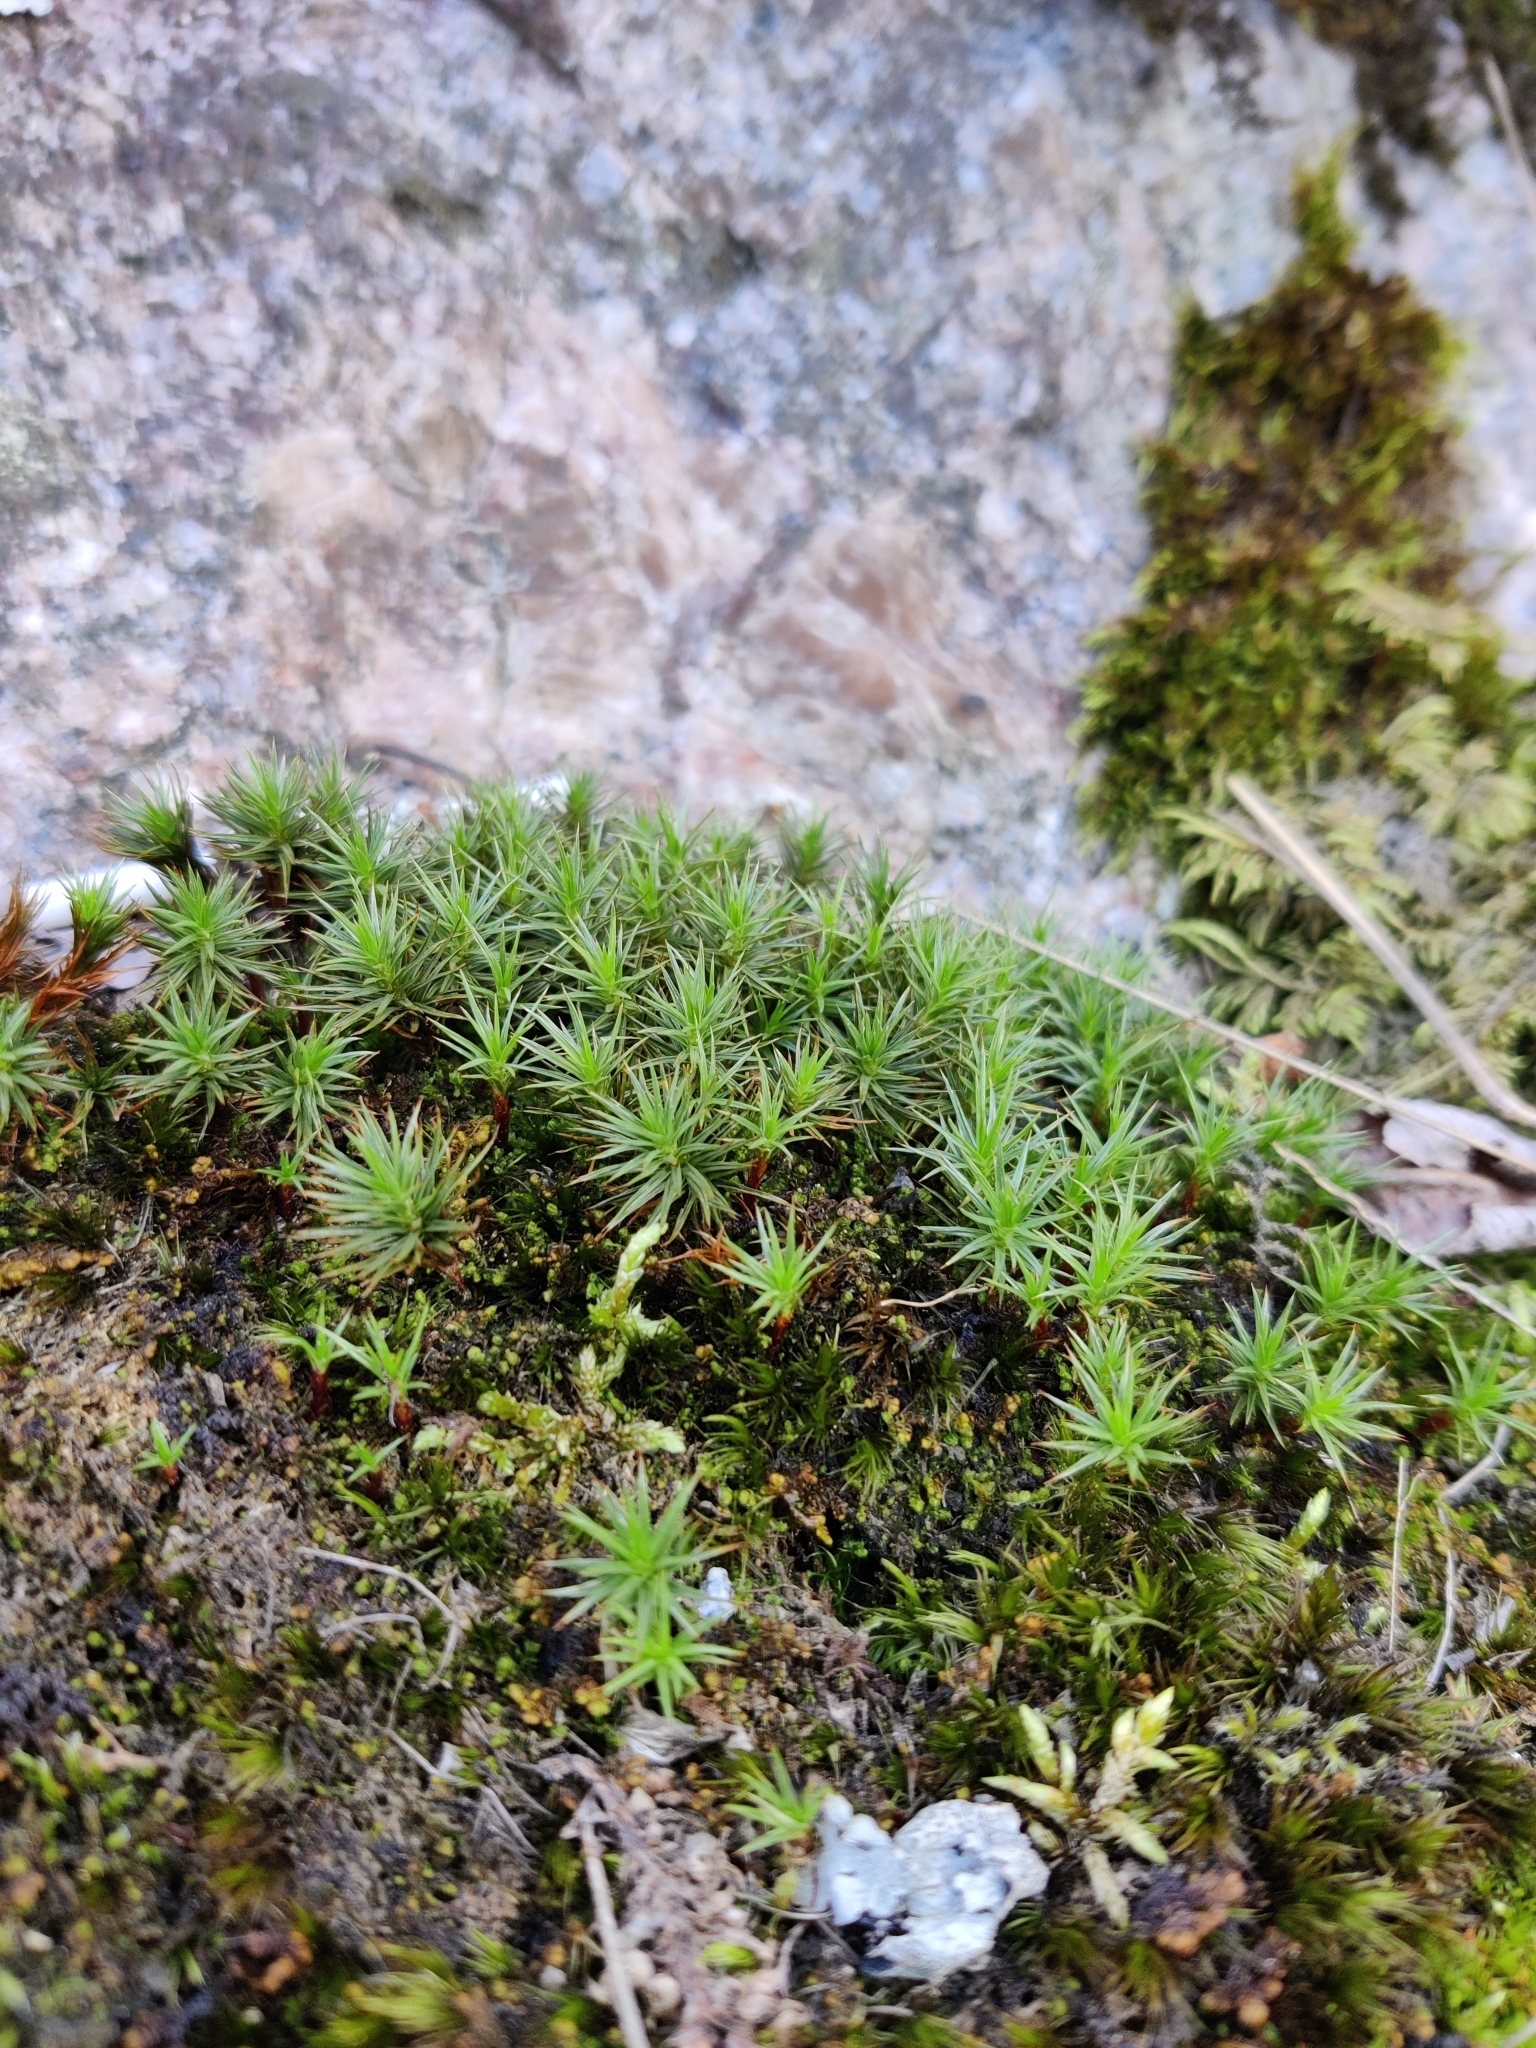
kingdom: Plantae
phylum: Bryophyta
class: Polytrichopsida
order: Polytrichales
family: Polytrichaceae
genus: Polytrichum
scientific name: Polytrichum juniperinum
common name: Juniper haircap moss
